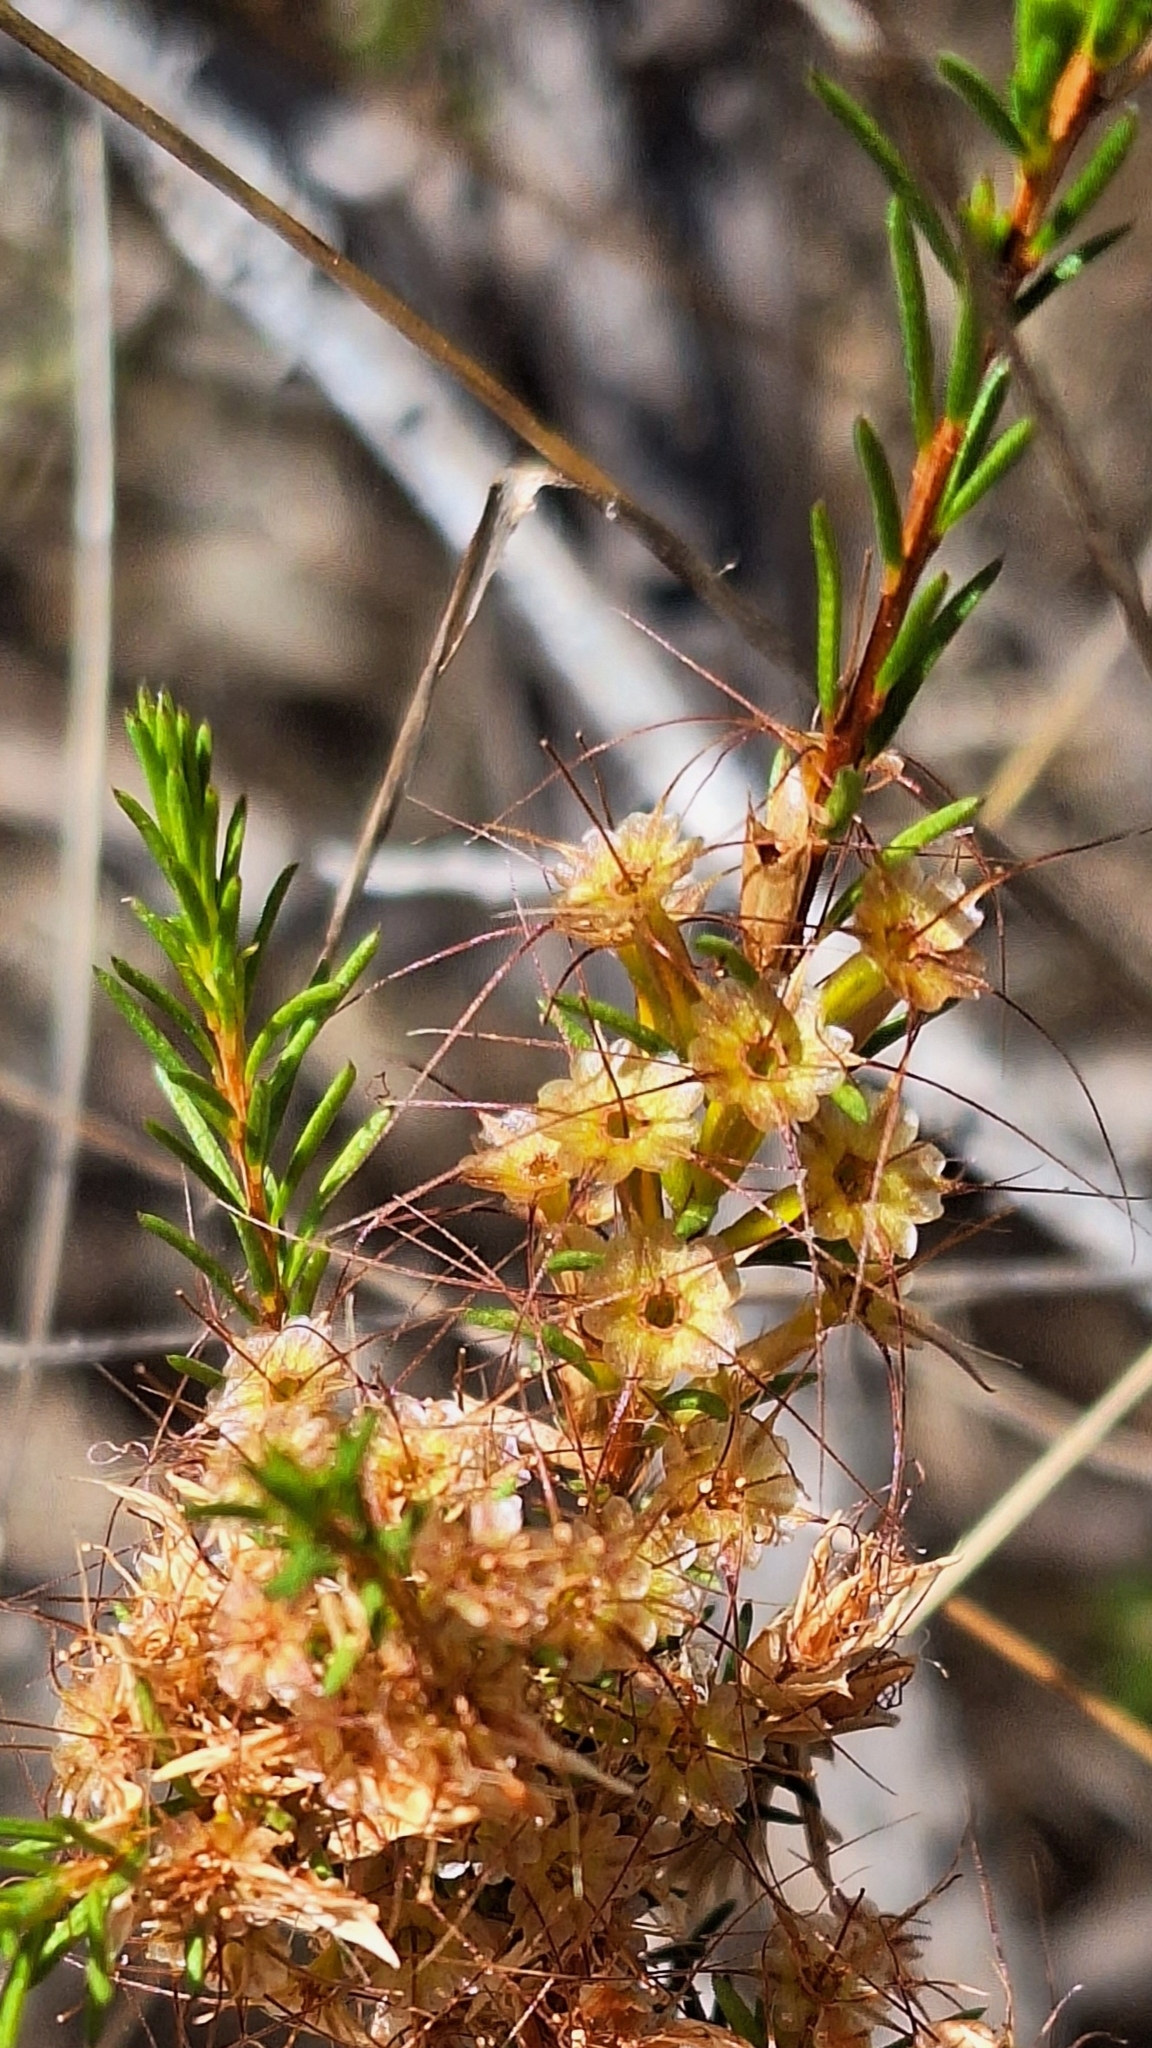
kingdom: Plantae
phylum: Tracheophyta
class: Magnoliopsida
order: Myrtales
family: Myrtaceae
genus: Calytrix
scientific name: Calytrix tetragona
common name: Common fringe myrtle
